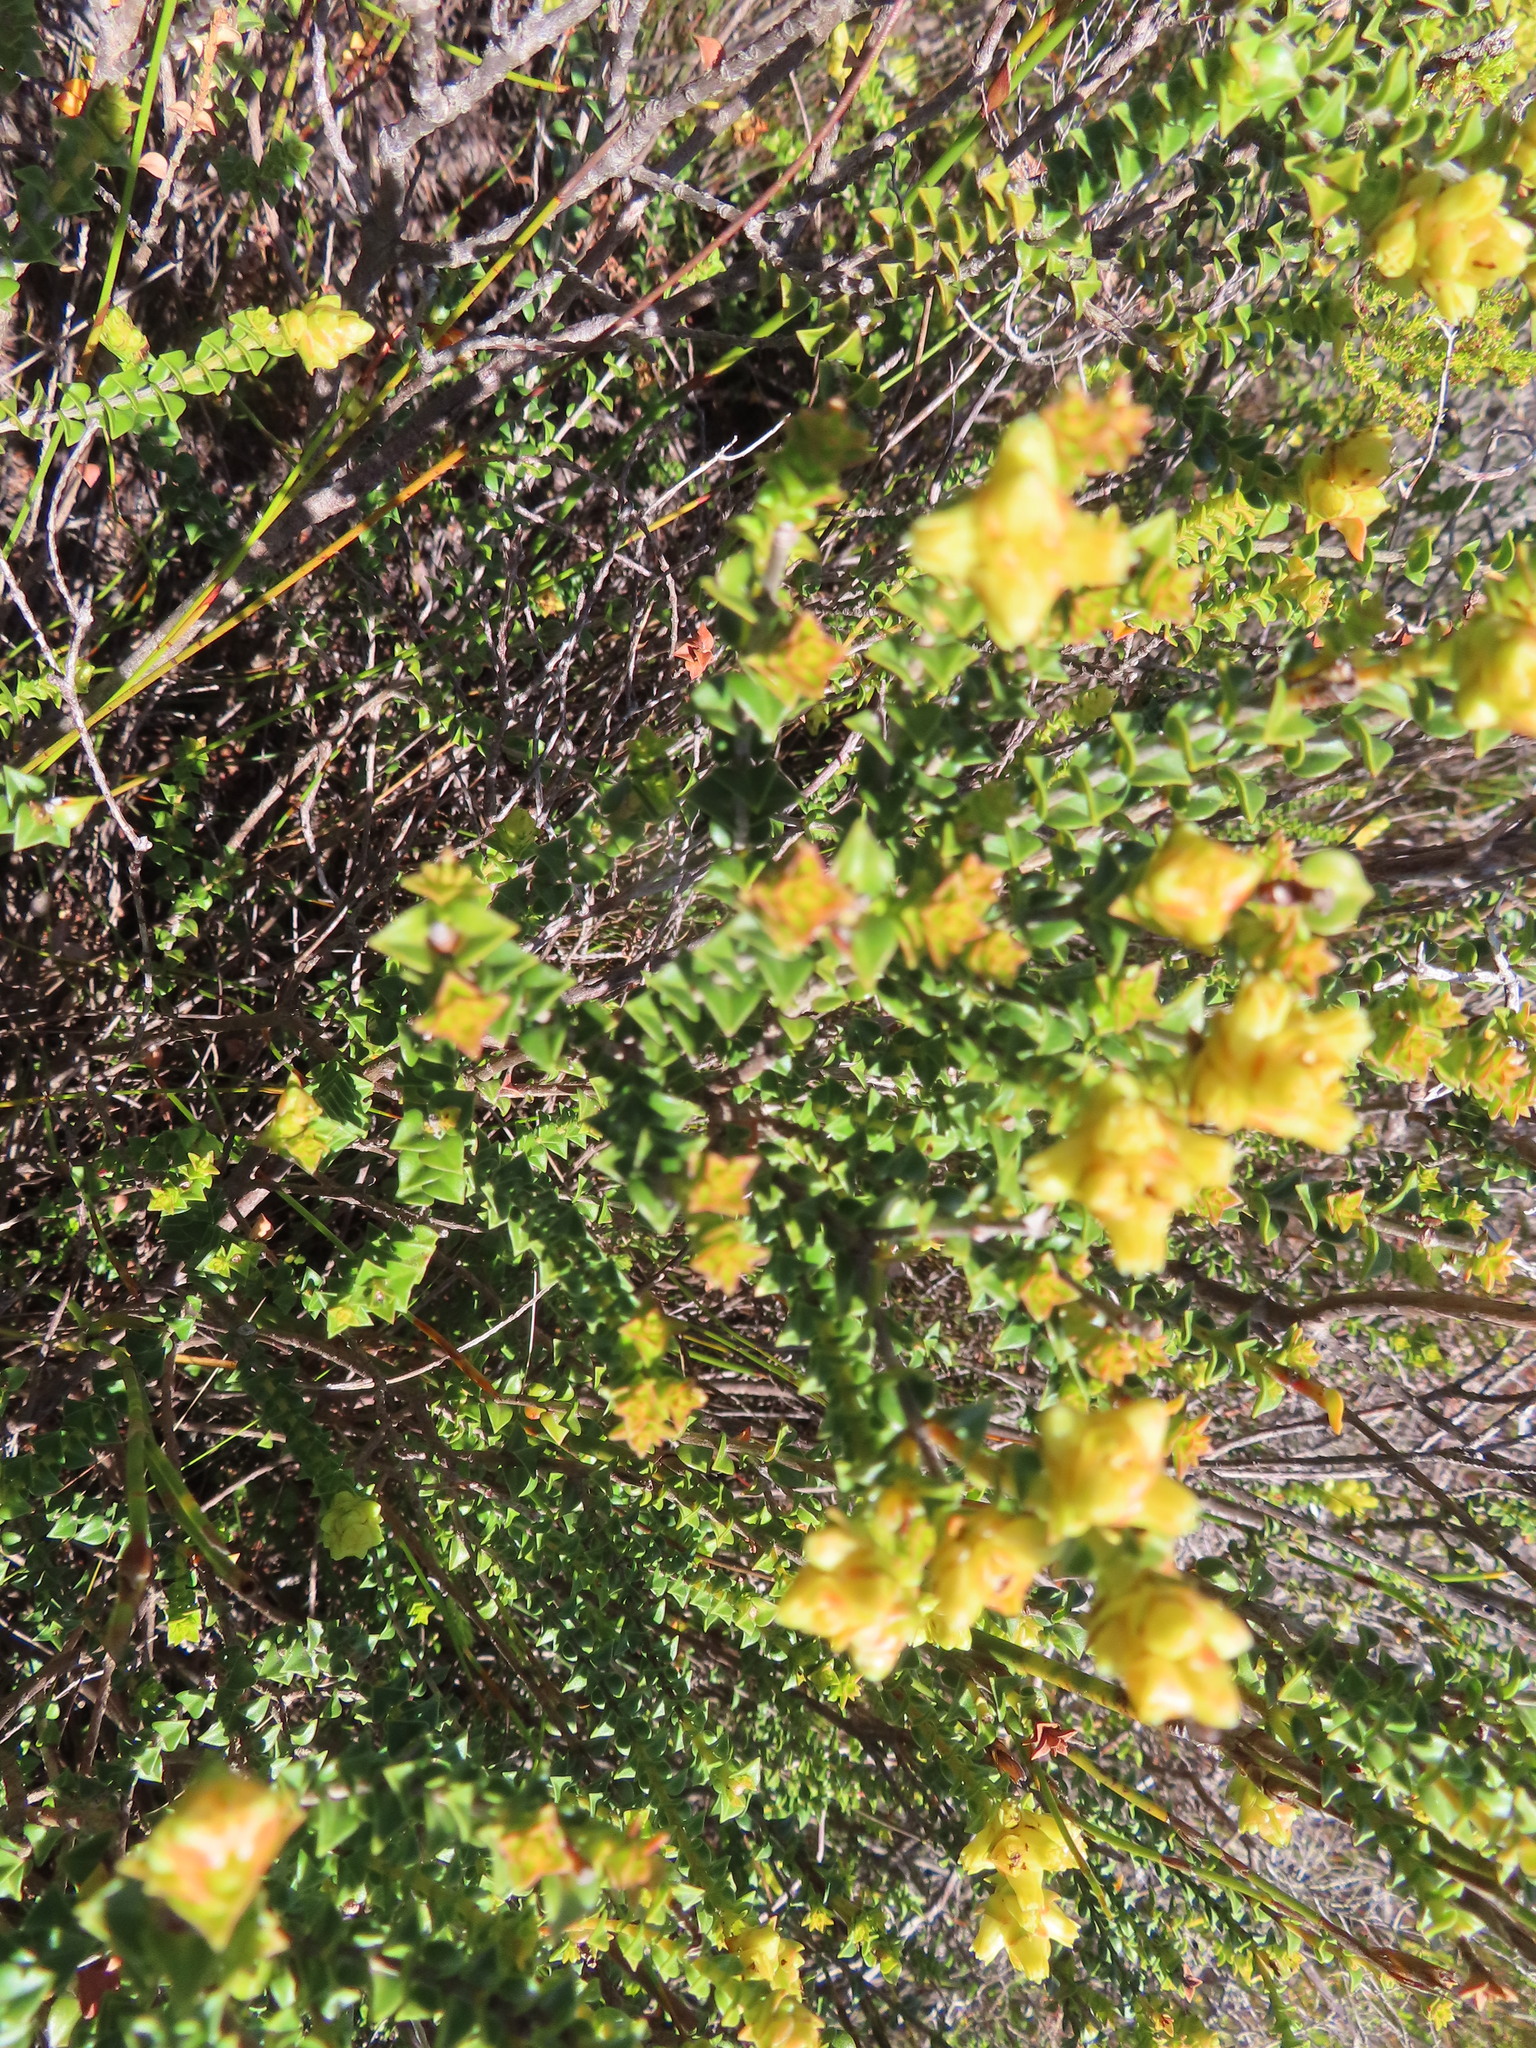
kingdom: Plantae
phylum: Tracheophyta
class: Magnoliopsida
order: Myrtales
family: Penaeaceae
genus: Penaea
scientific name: Penaea mucronata
